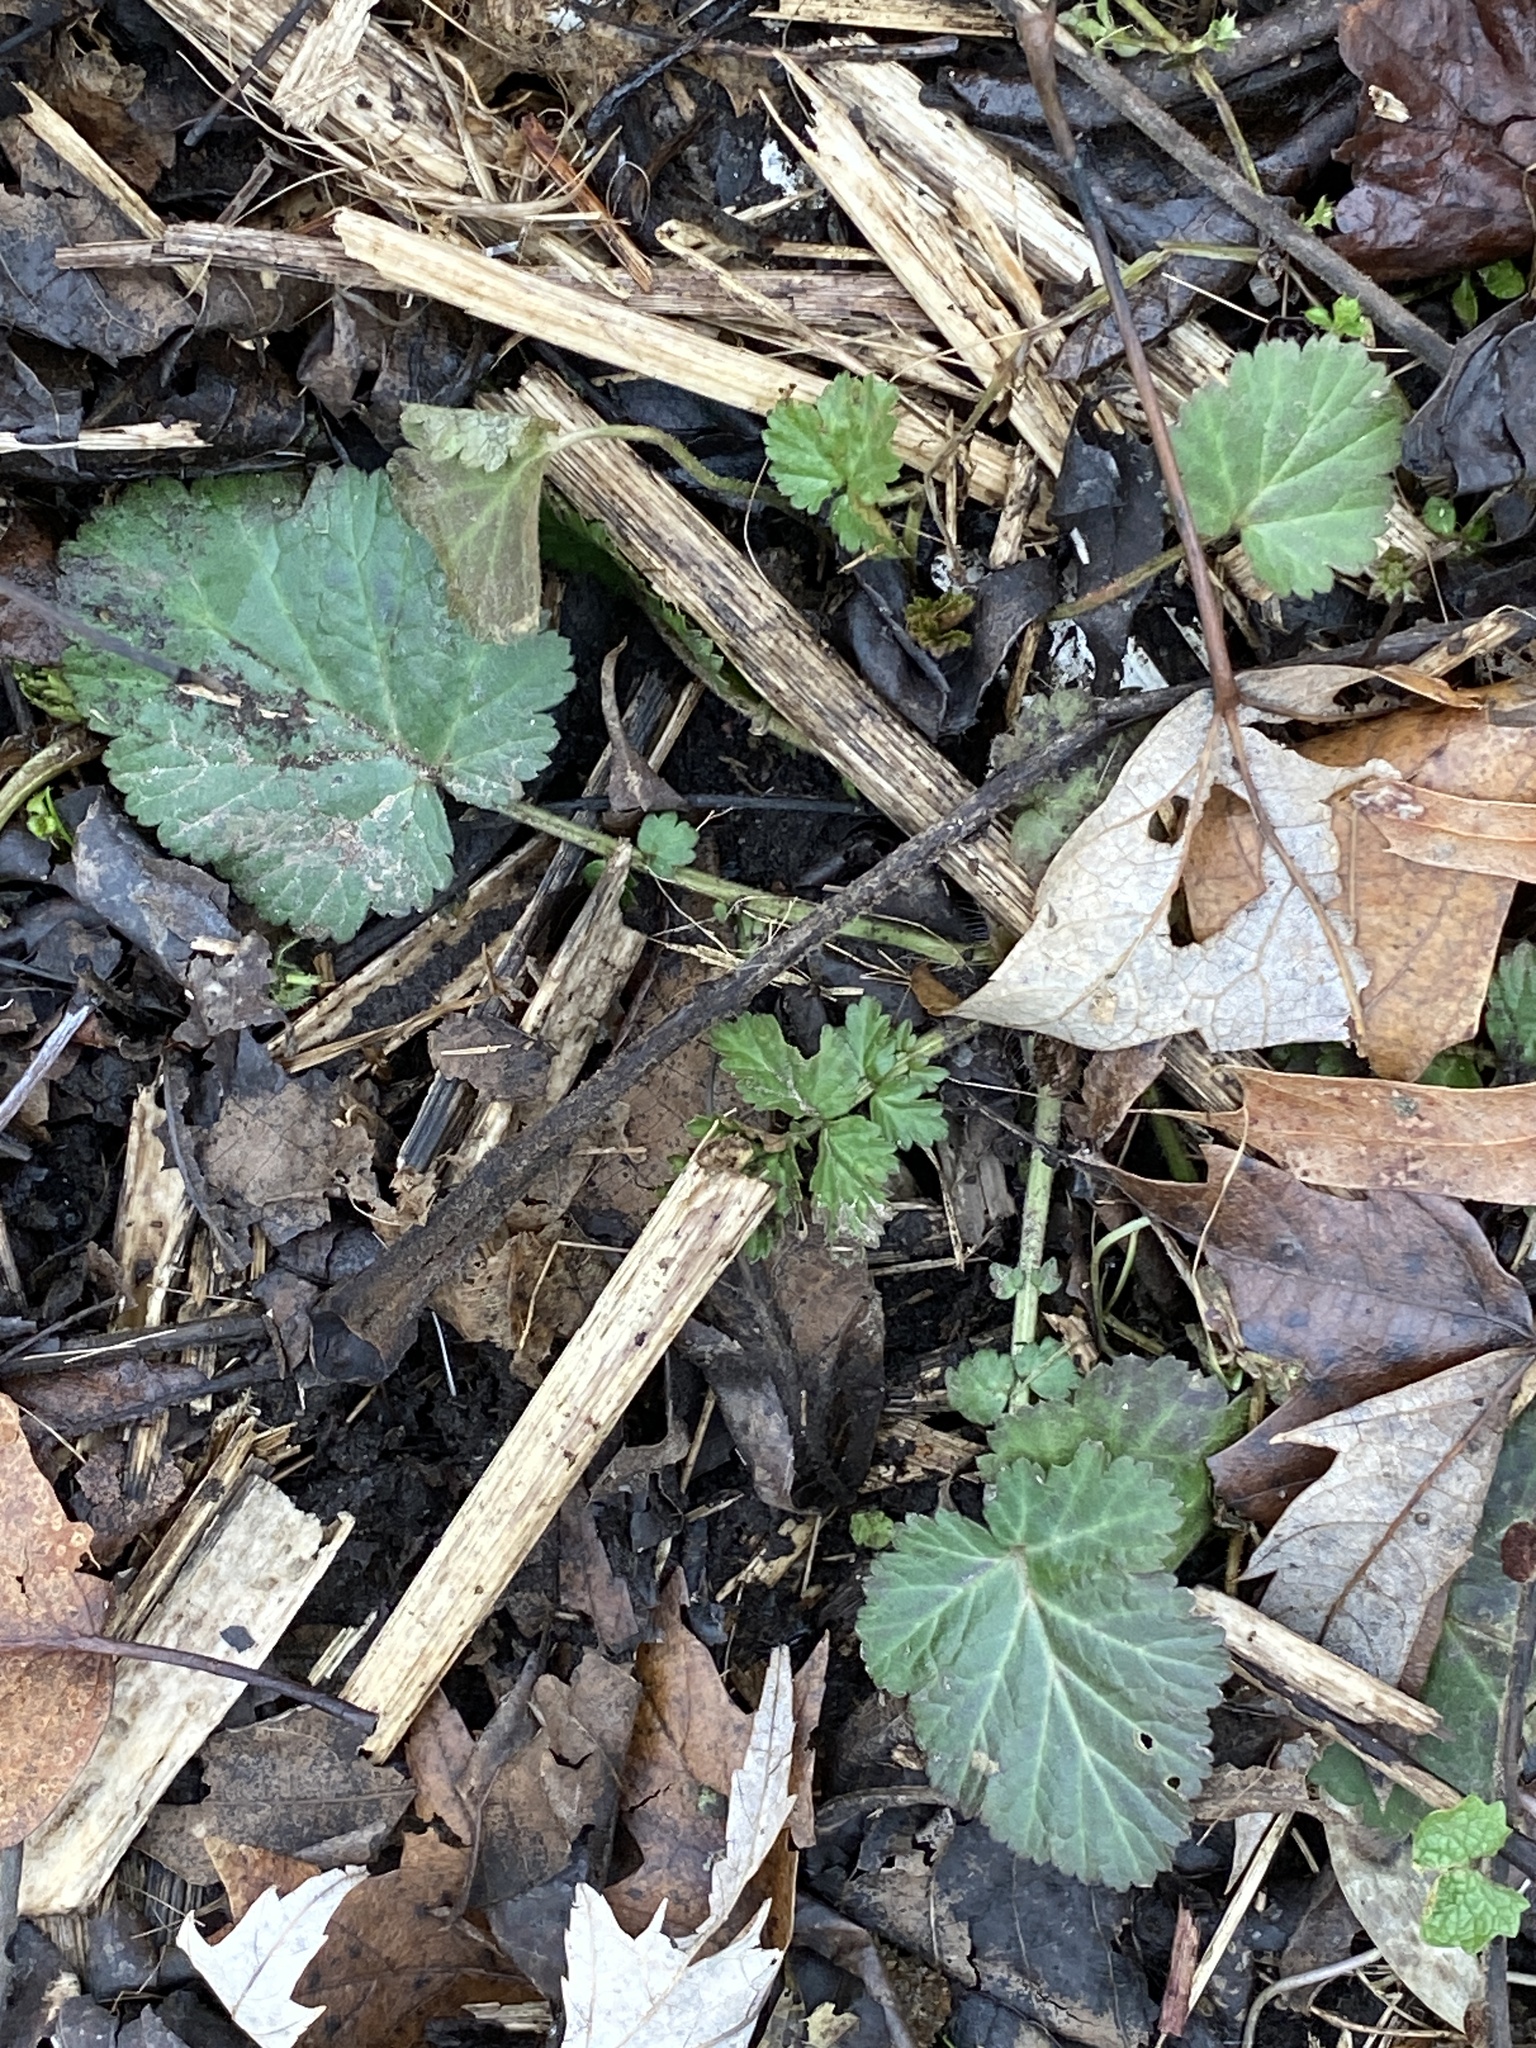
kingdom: Plantae
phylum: Tracheophyta
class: Magnoliopsida
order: Rosales
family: Rosaceae
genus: Geum
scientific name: Geum canadense
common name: White avens
